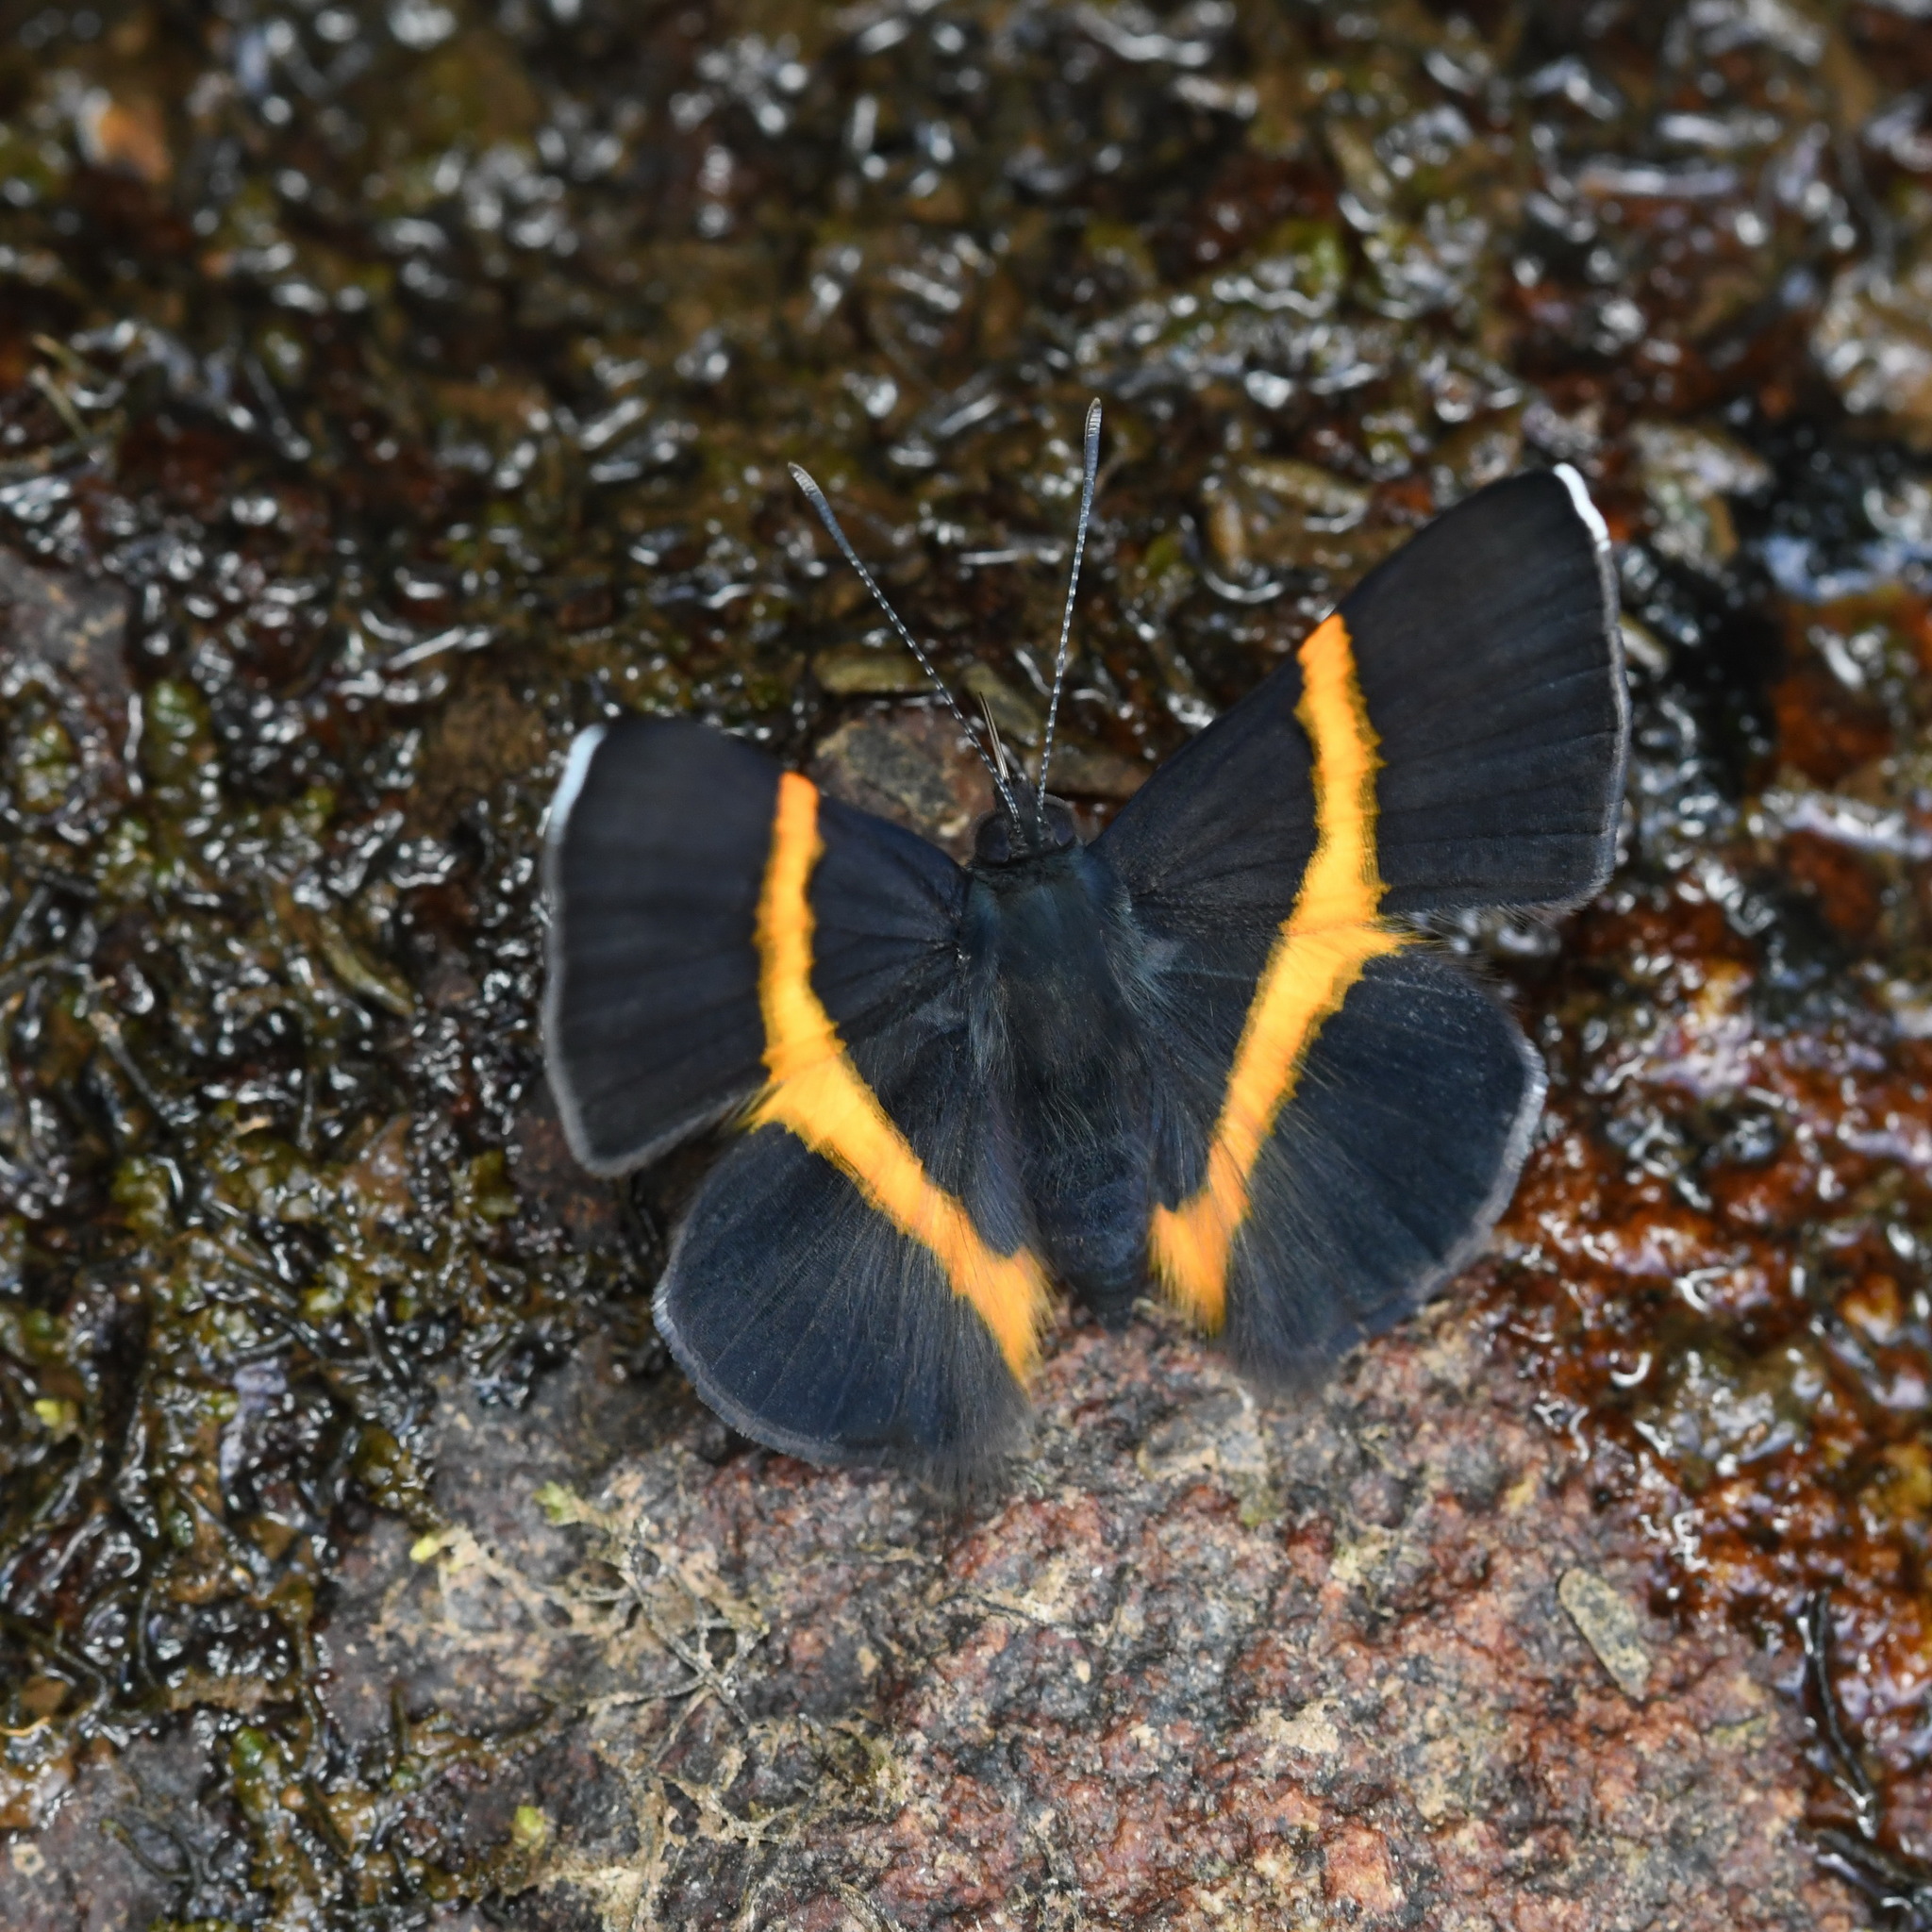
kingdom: Animalia
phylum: Arthropoda
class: Insecta
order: Lepidoptera
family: Riodinidae
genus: Parcella
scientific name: Parcella amarynthina
